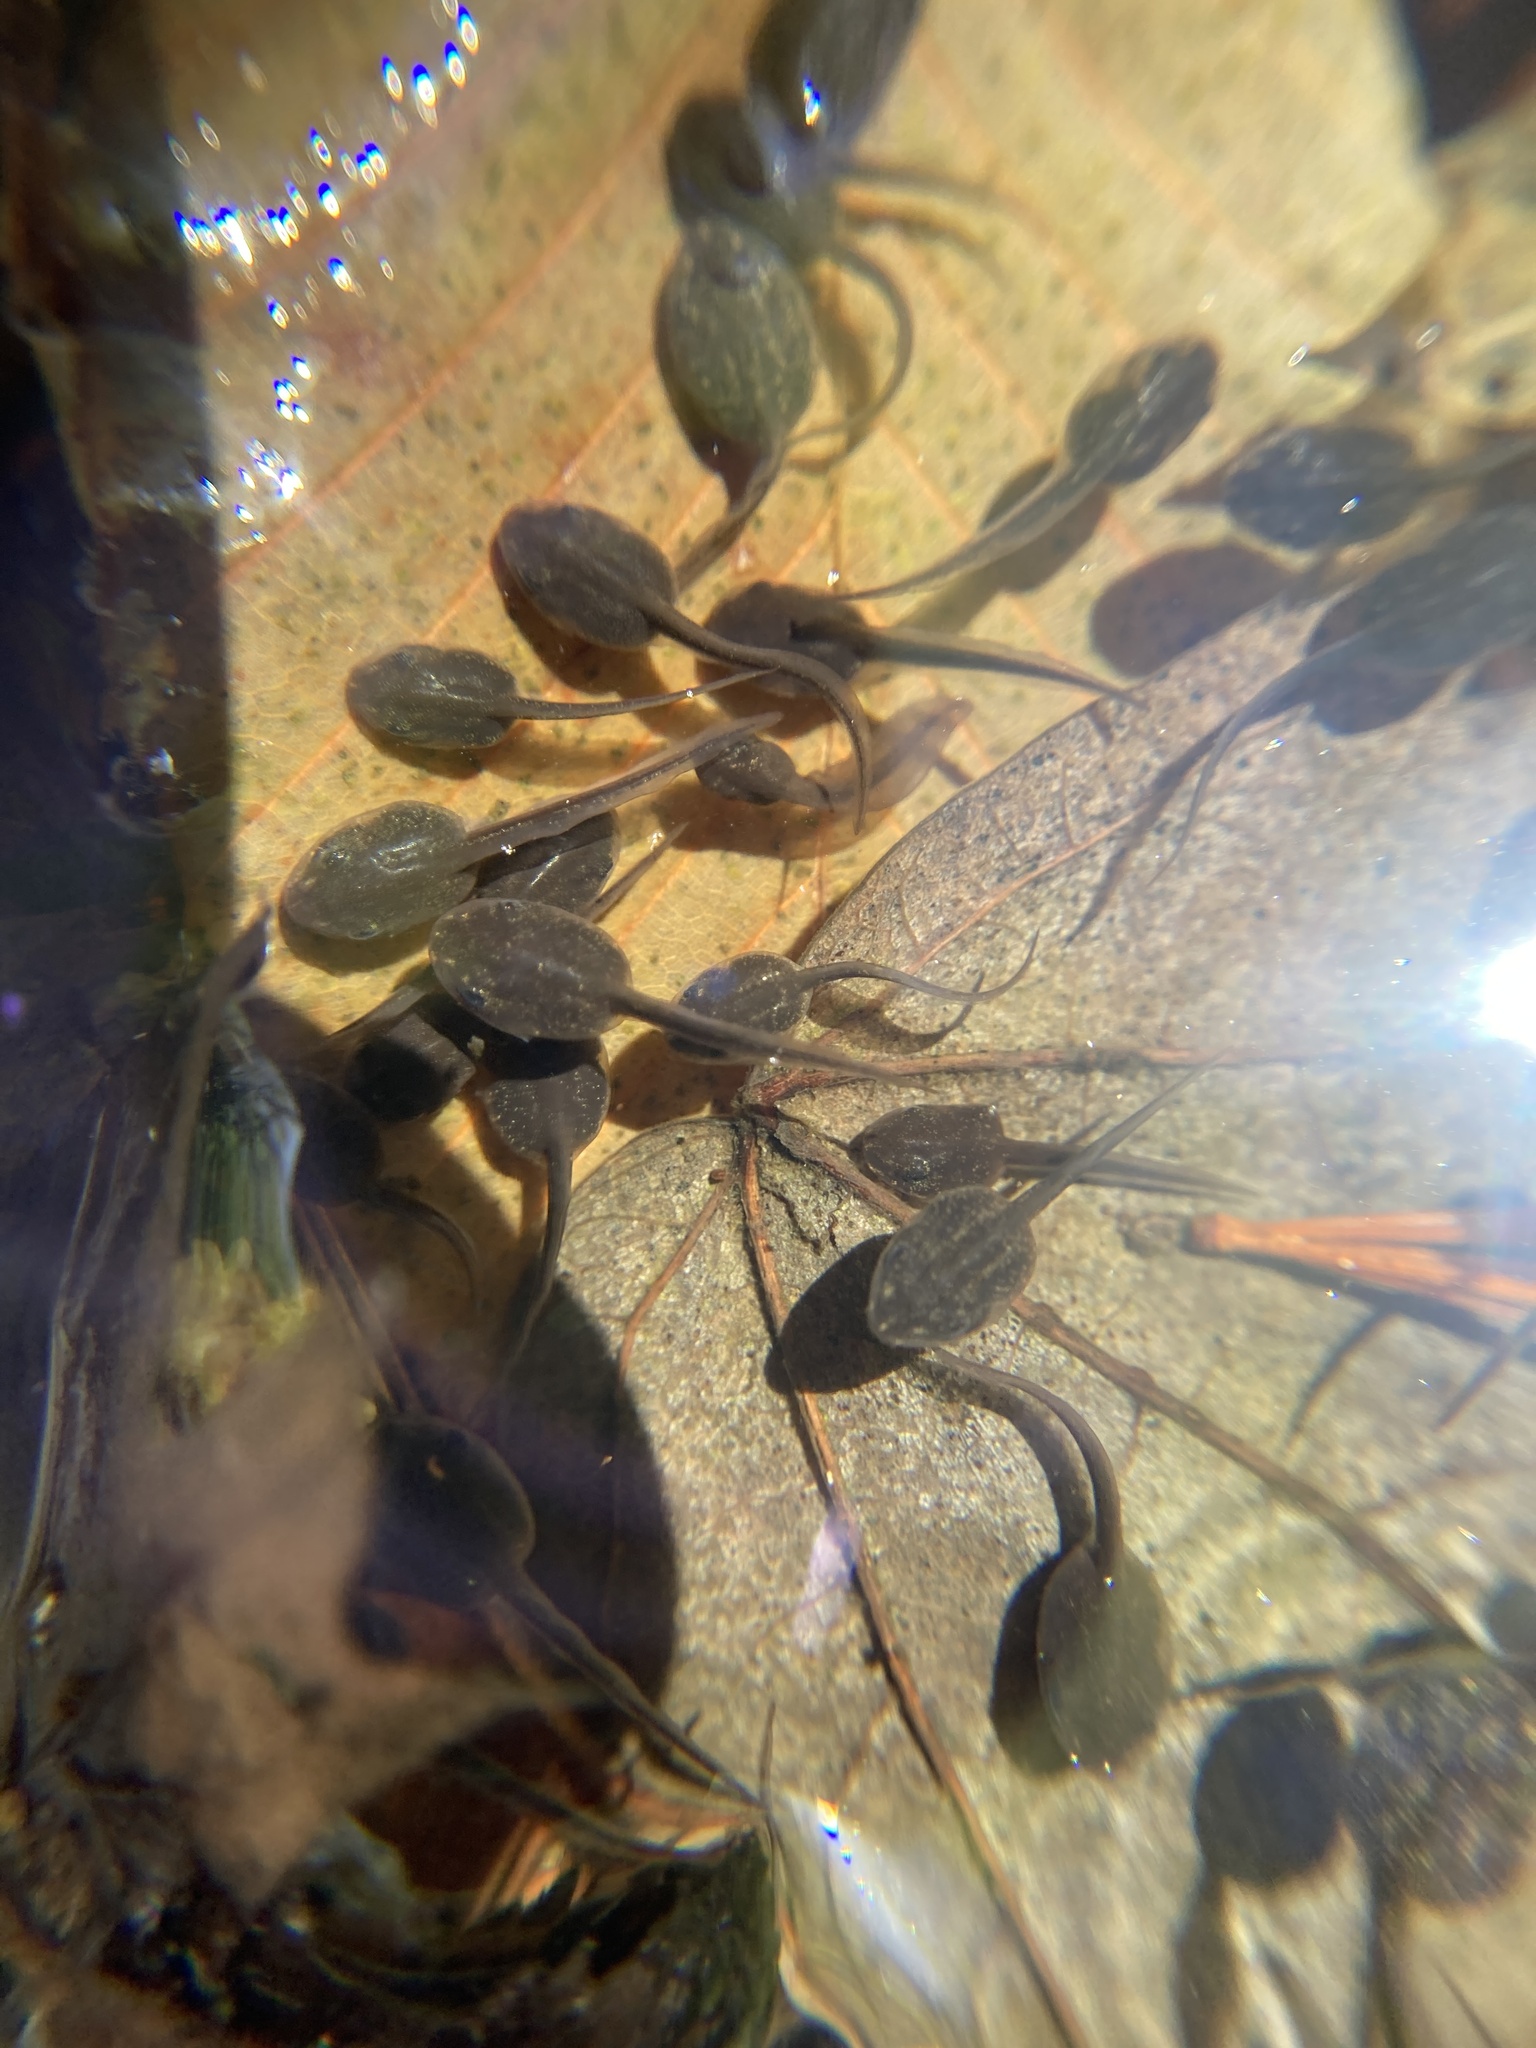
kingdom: Animalia
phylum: Chordata
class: Amphibia
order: Anura
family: Ranidae
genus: Lithobates
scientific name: Lithobates sylvaticus
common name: Wood frog
